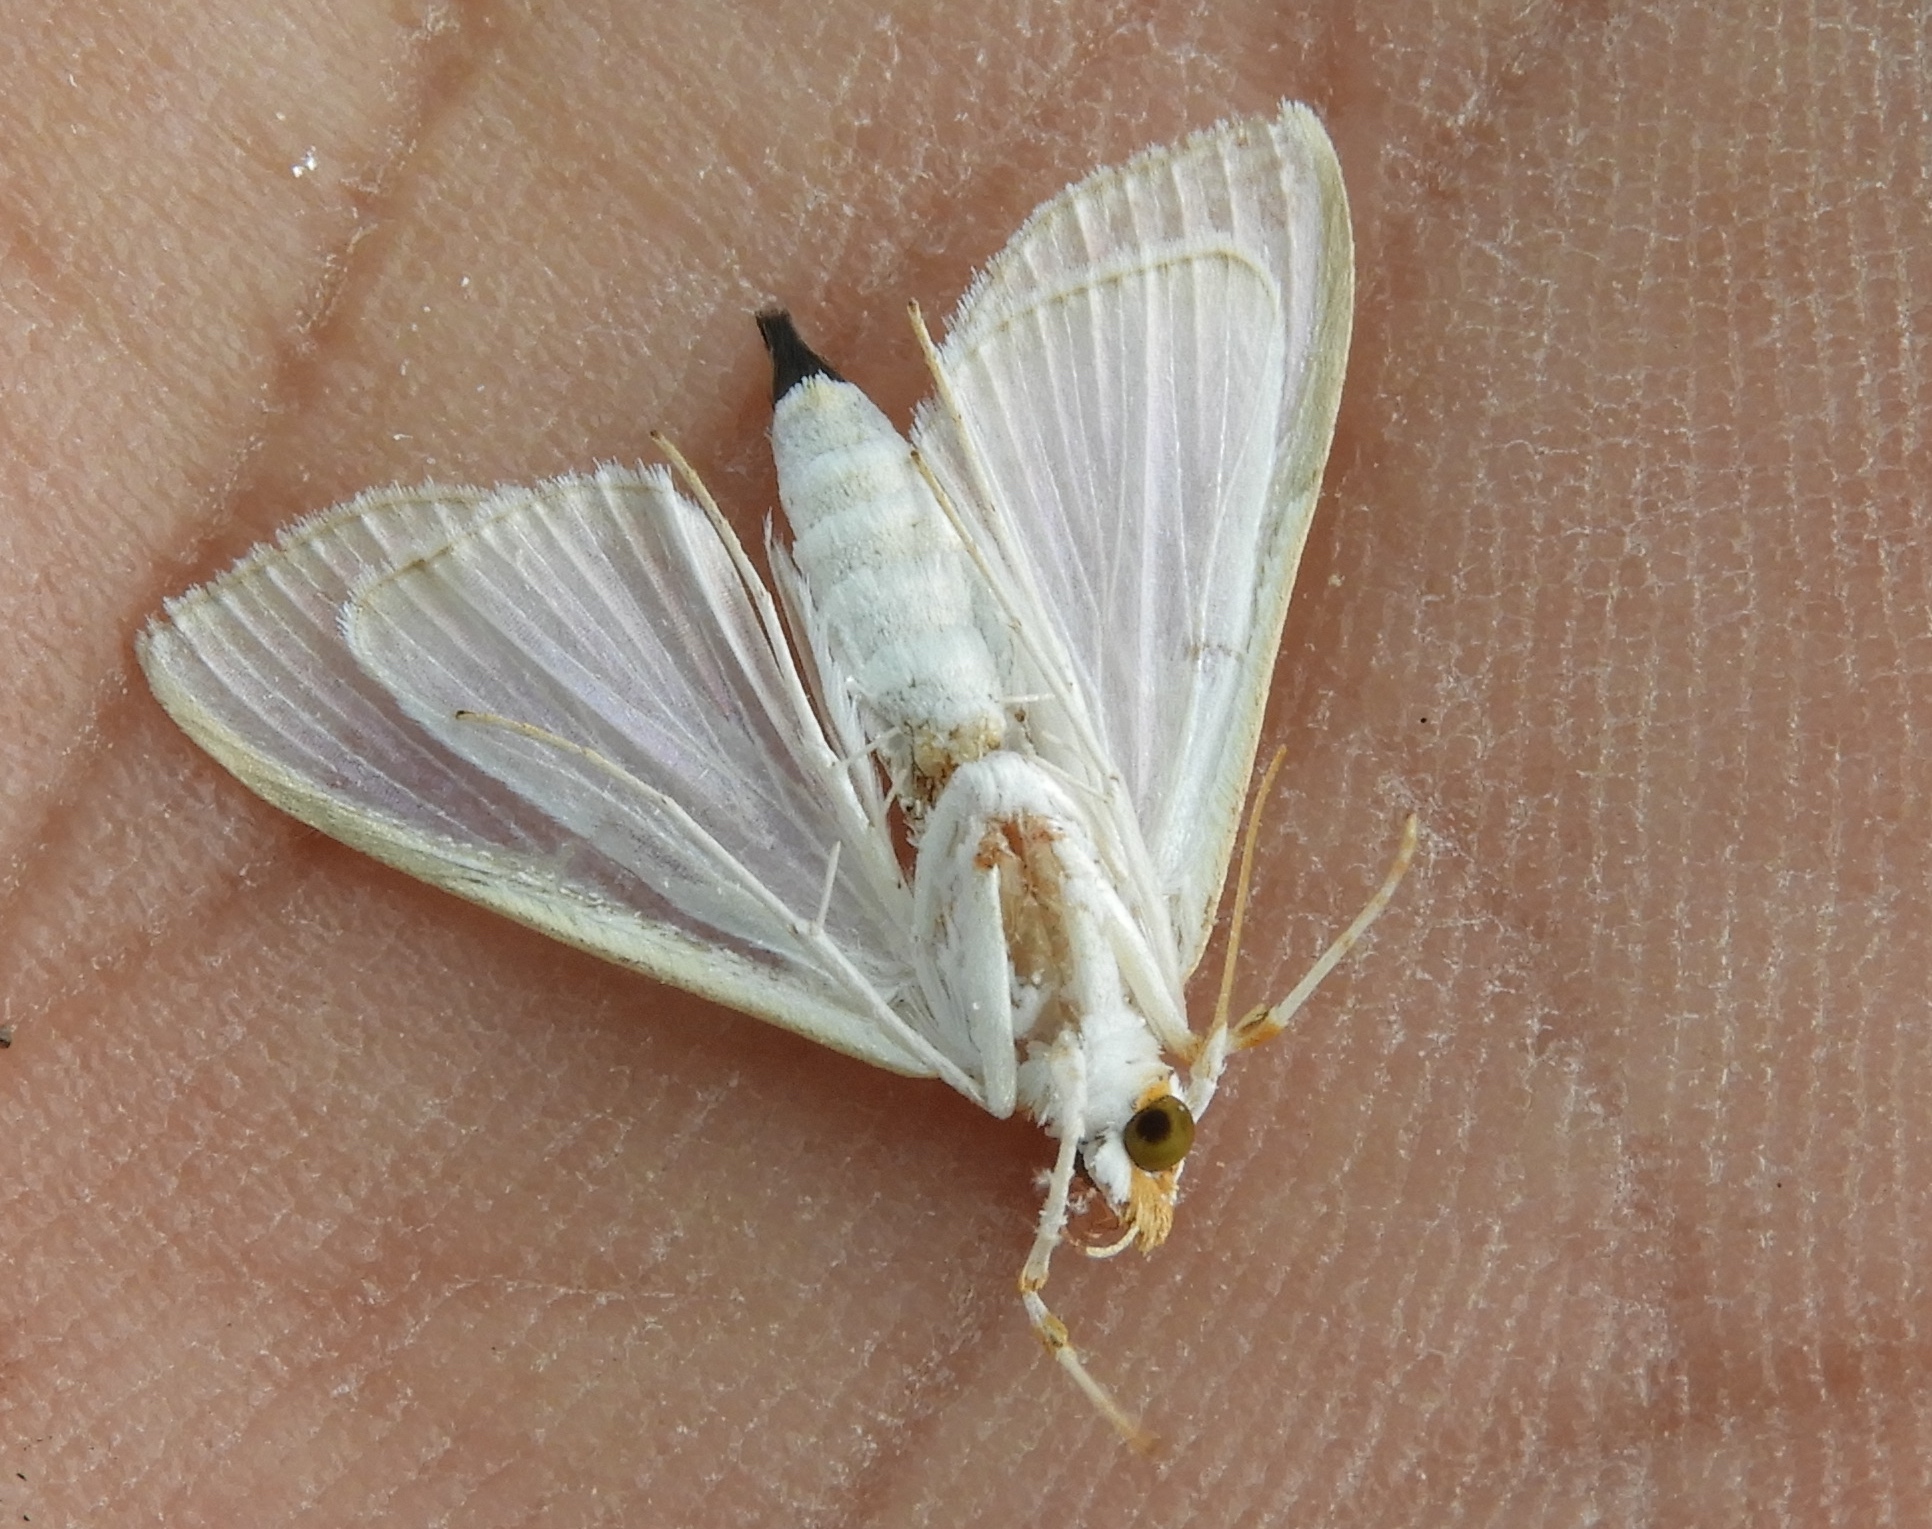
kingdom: Animalia
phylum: Arthropoda
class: Insecta
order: Lepidoptera
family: Crambidae
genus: Palpita
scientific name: Palpita
